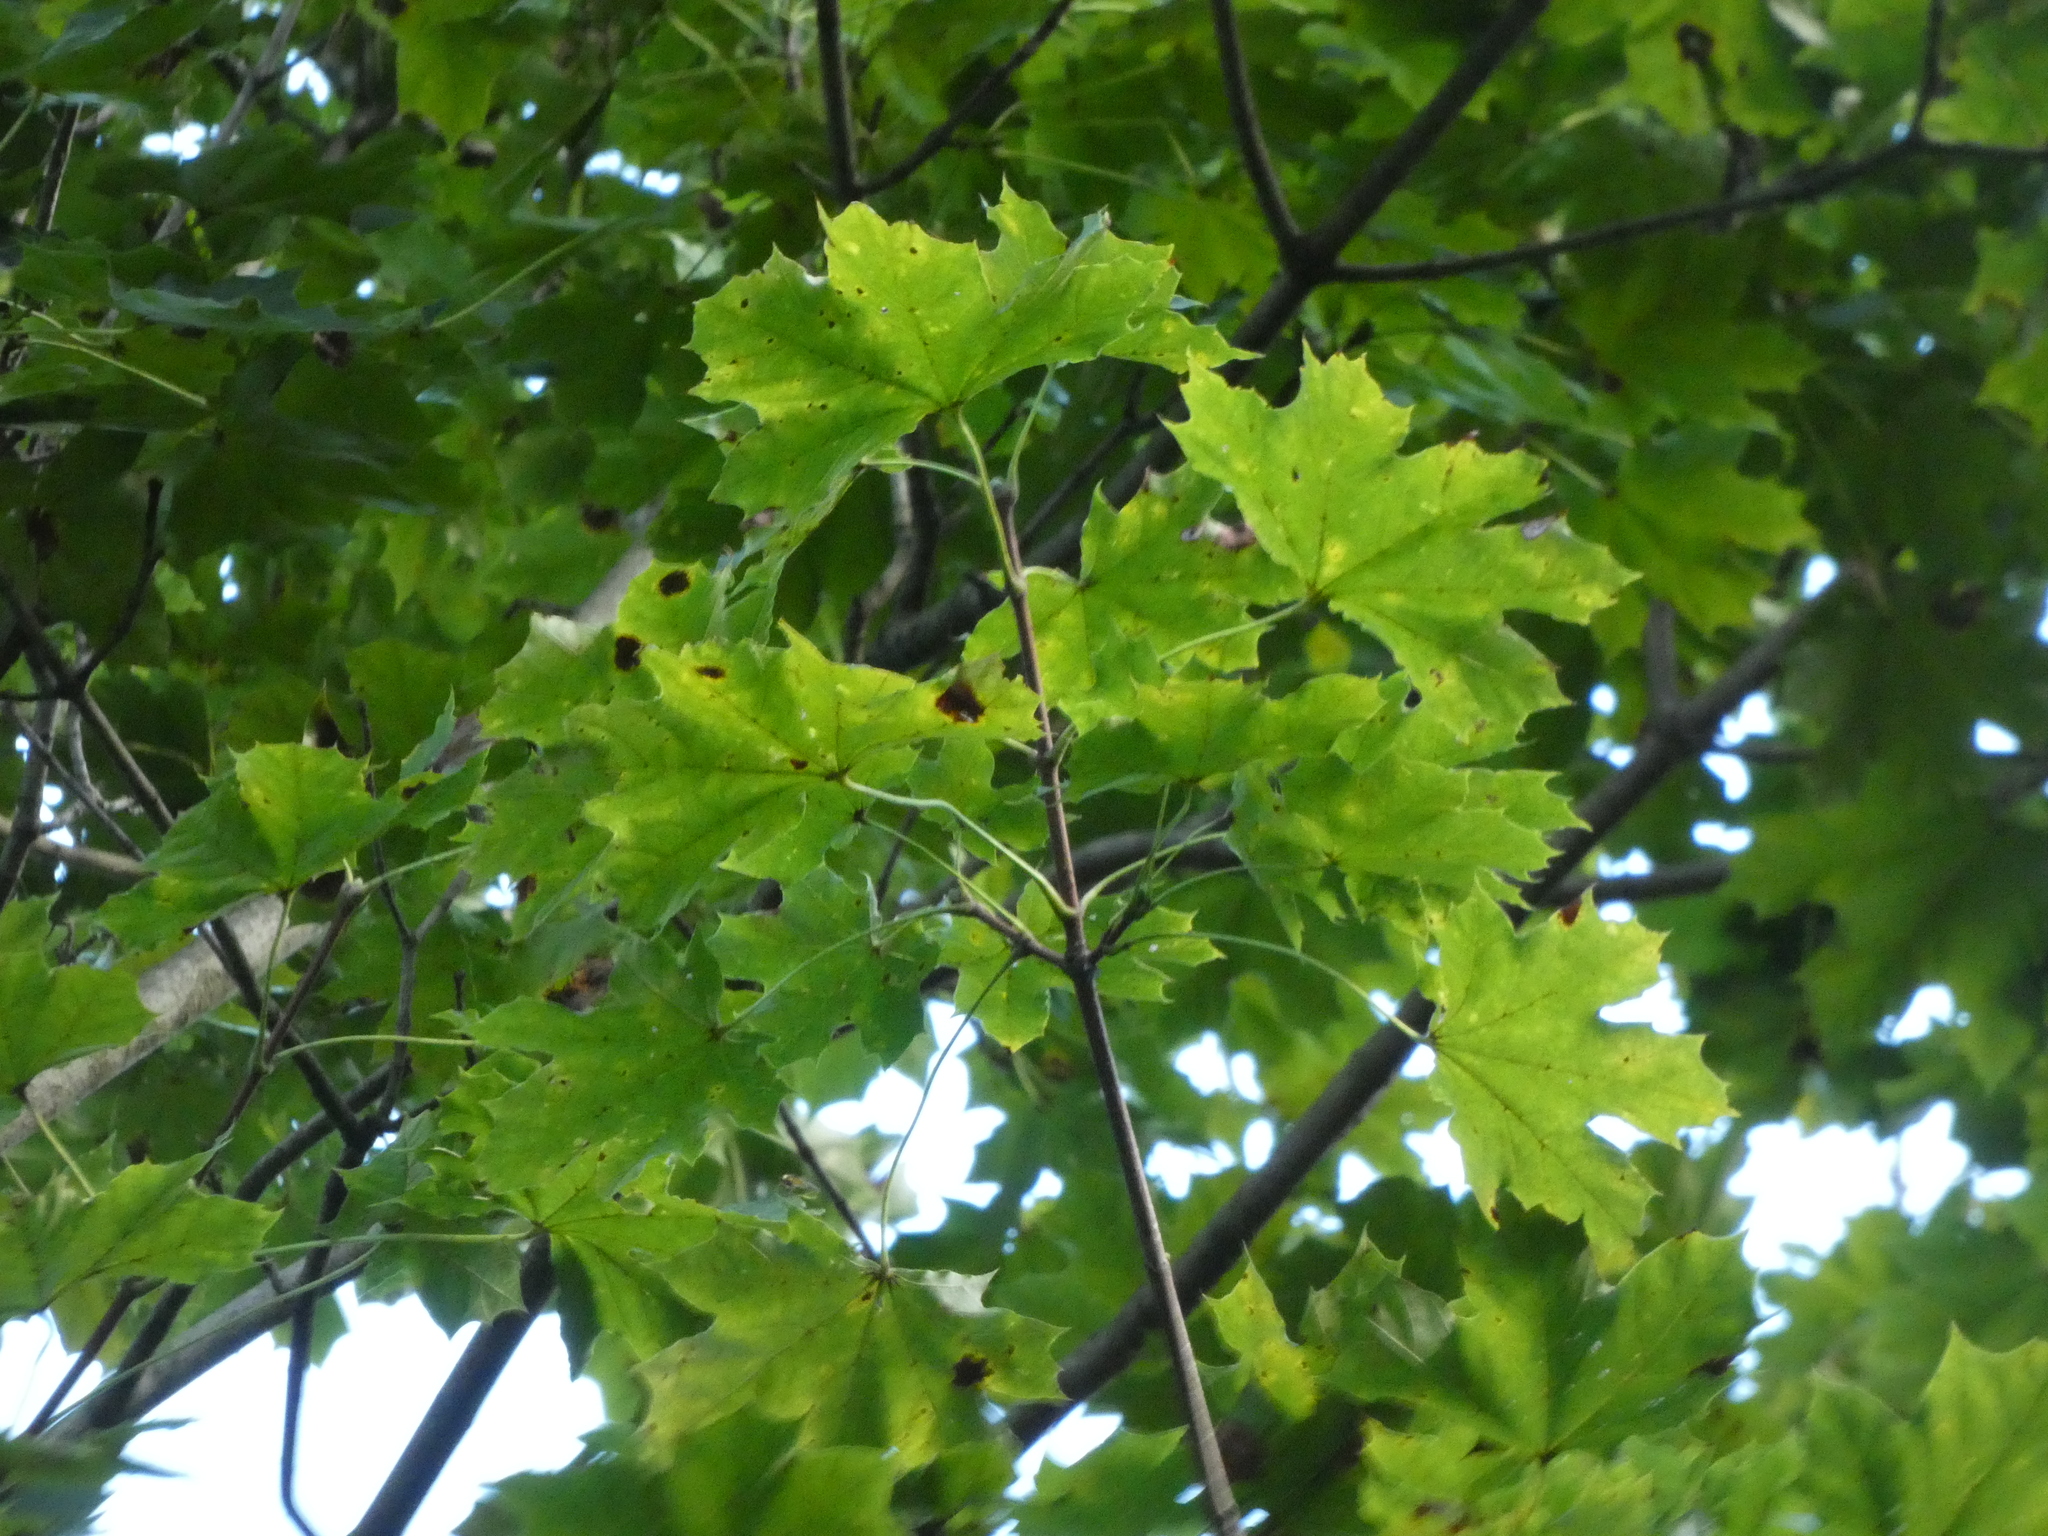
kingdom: Plantae
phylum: Tracheophyta
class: Magnoliopsida
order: Sapindales
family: Sapindaceae
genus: Acer
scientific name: Acer platanoides
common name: Norway maple
